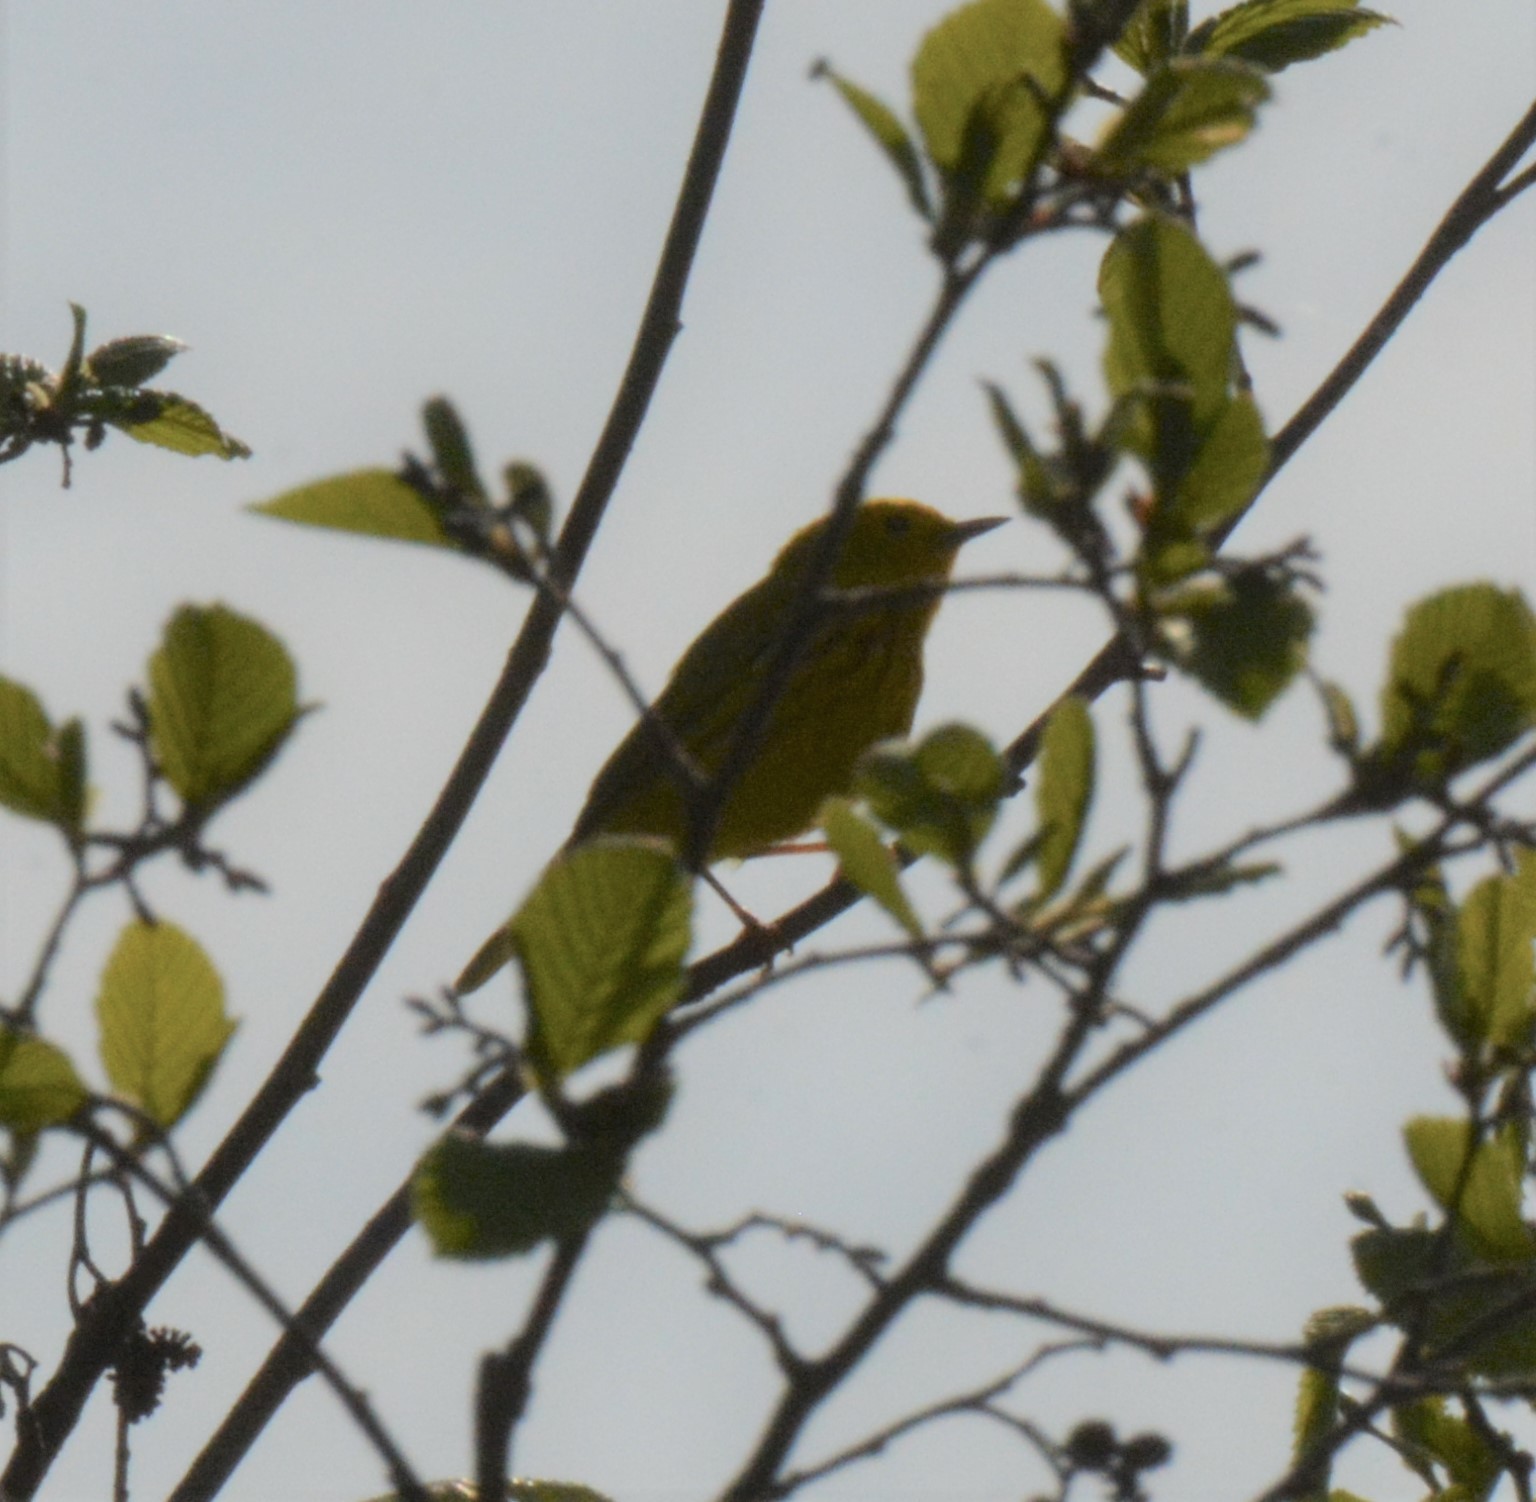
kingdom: Animalia
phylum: Chordata
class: Aves
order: Passeriformes
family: Parulidae
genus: Setophaga
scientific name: Setophaga petechia
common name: Yellow warbler
